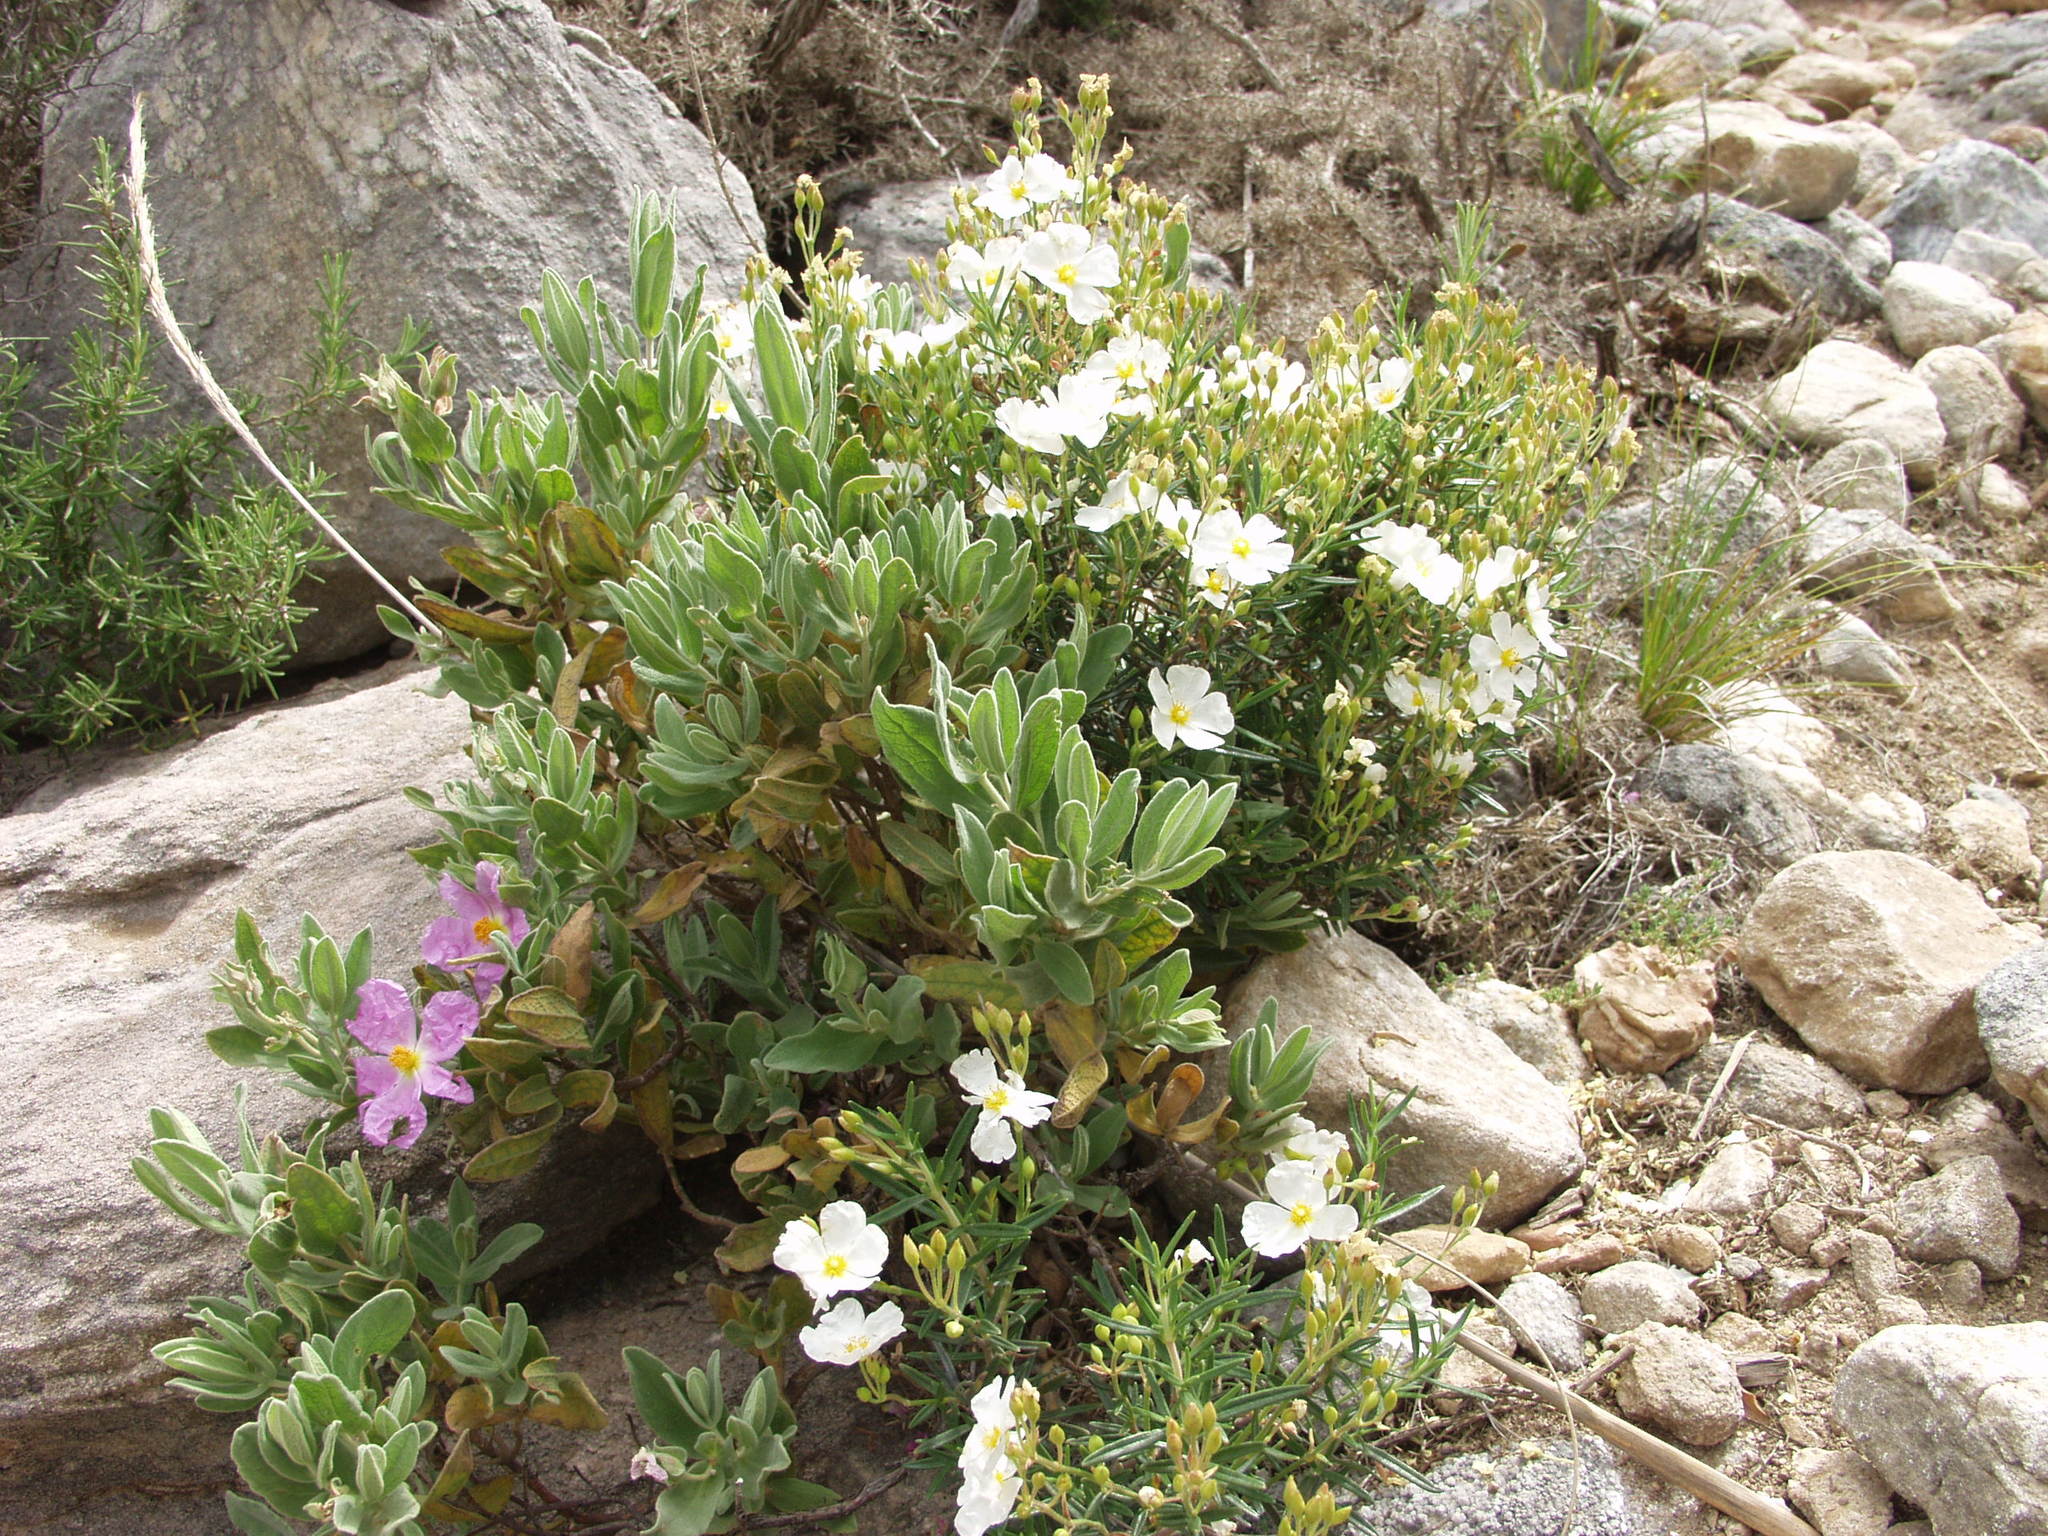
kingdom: Plantae
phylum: Tracheophyta
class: Magnoliopsida
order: Malvales
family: Cistaceae
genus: Cistus
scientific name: Cistus clusii
